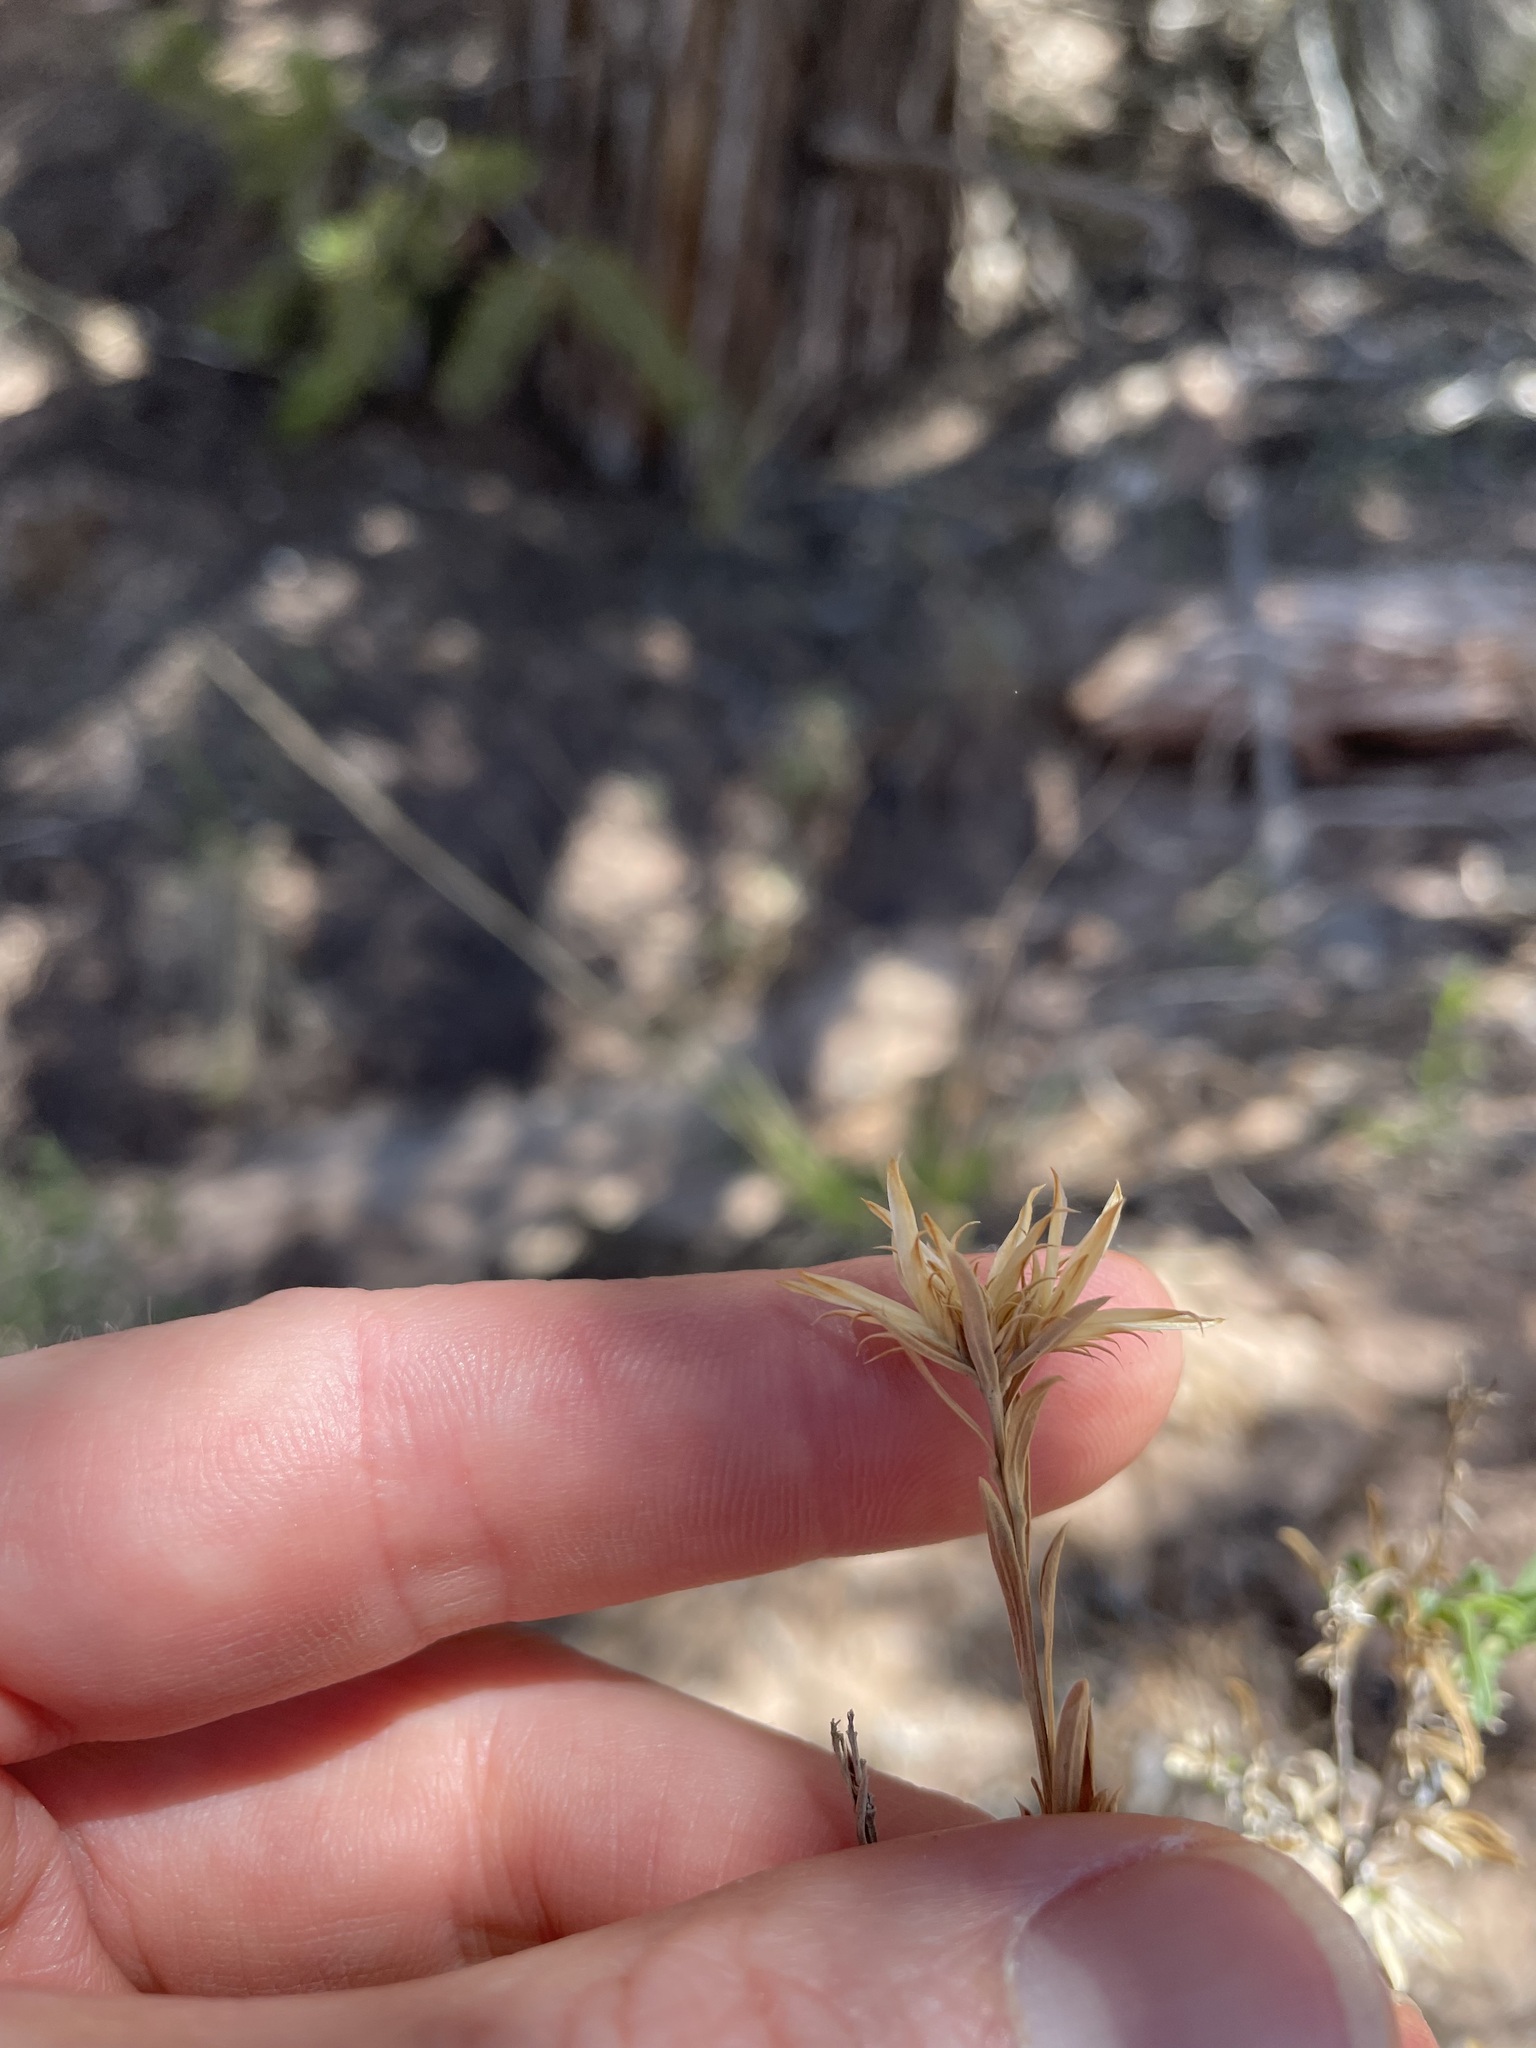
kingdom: Plantae
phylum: Tracheophyta
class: Magnoliopsida
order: Asterales
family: Asteraceae
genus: Chrysothamnus
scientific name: Chrysothamnus depressus
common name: Long-flower rabbitbrush
